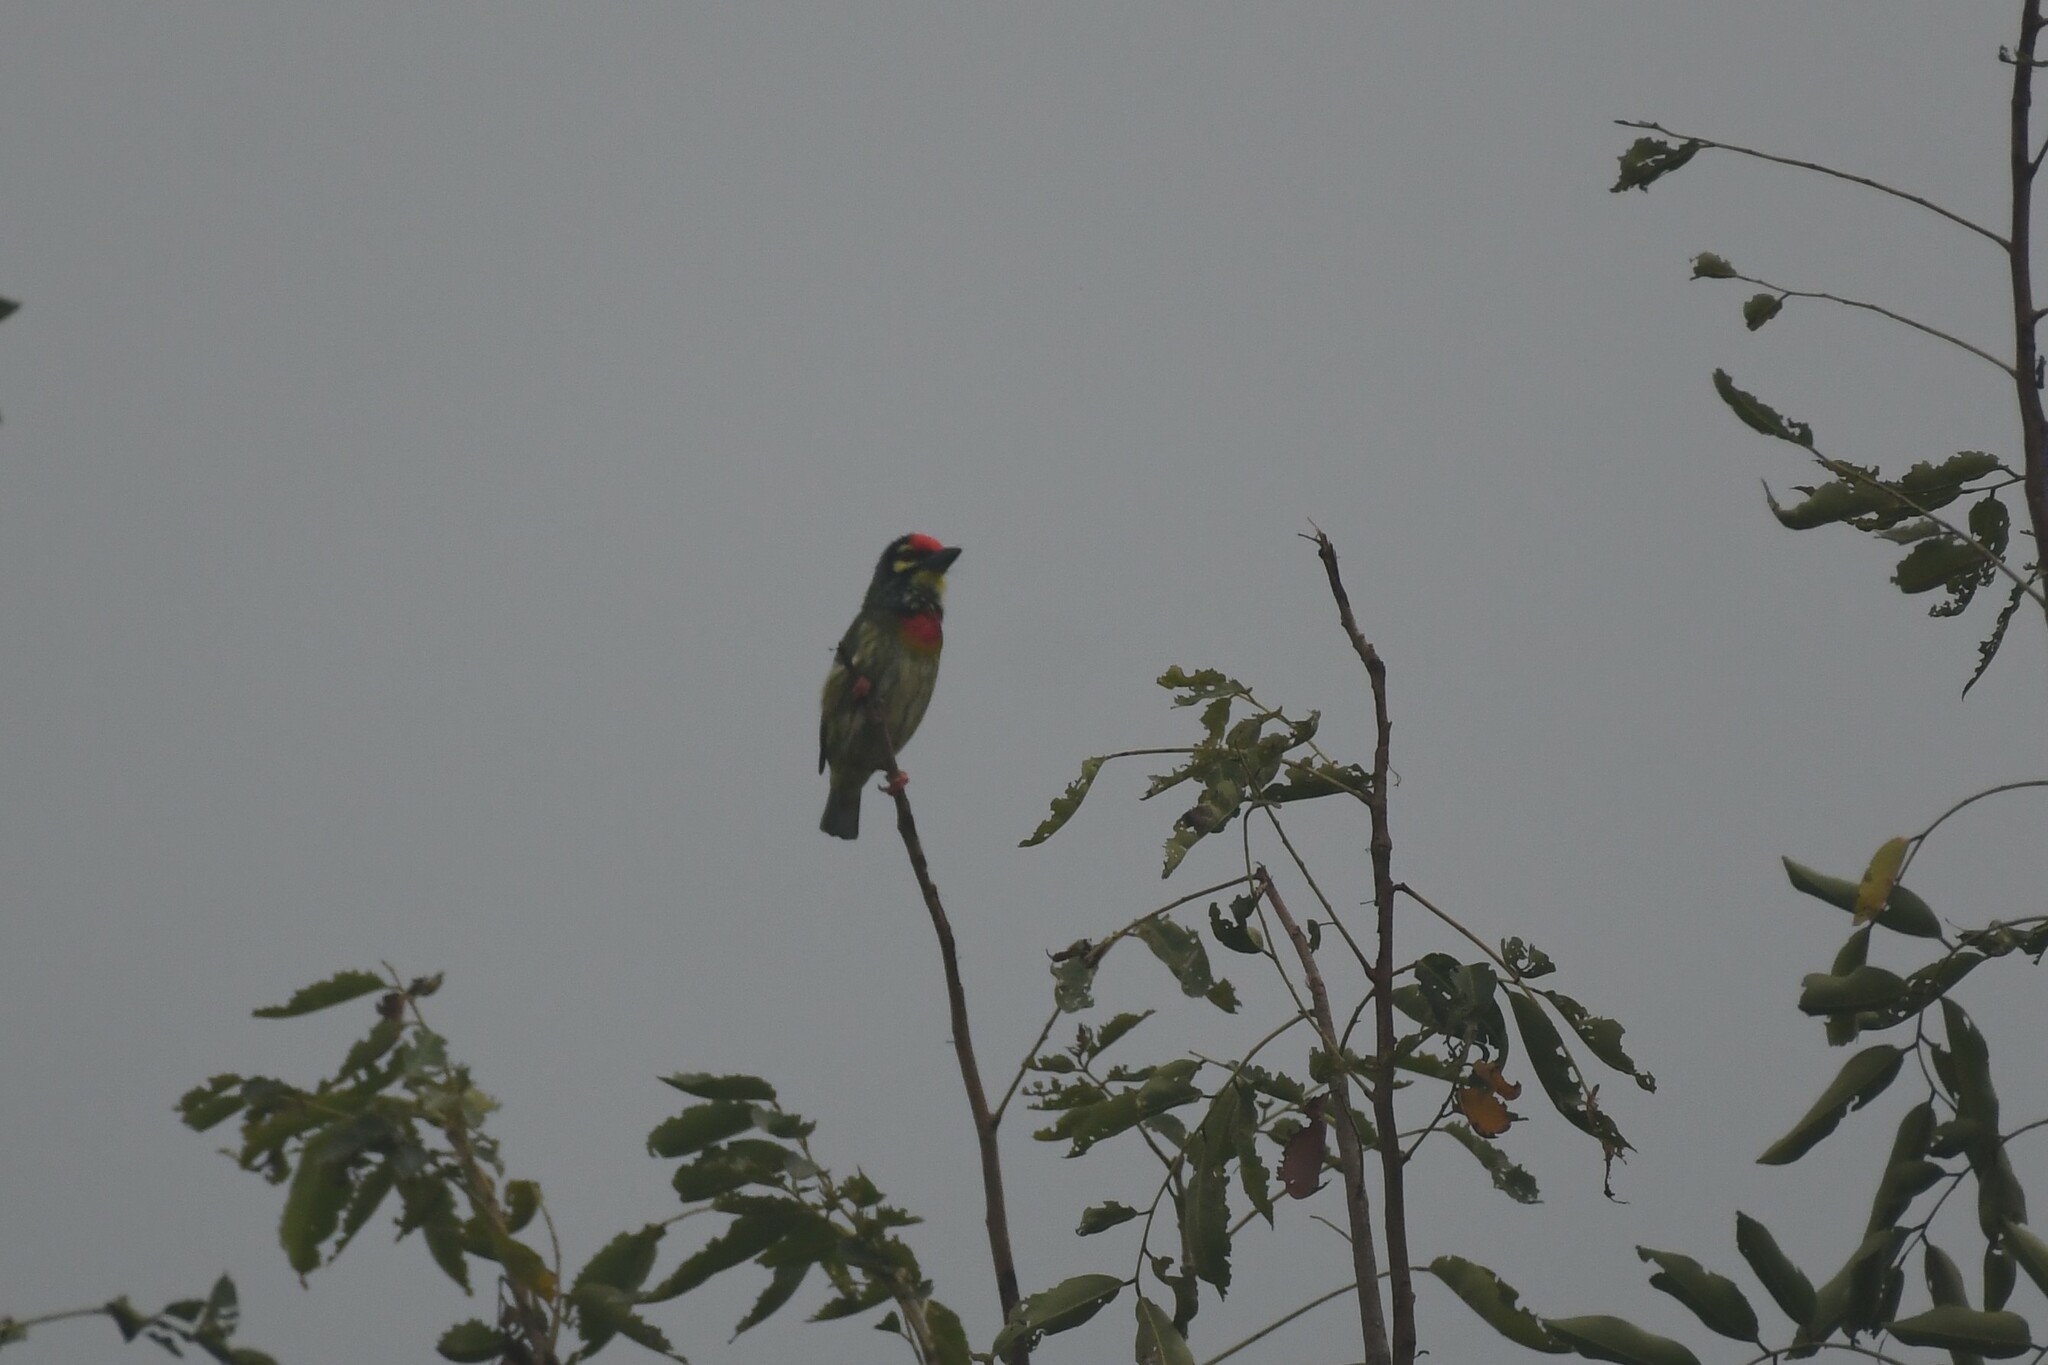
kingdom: Animalia
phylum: Chordata
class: Aves
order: Piciformes
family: Megalaimidae
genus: Psilopogon
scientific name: Psilopogon haemacephalus
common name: Coppersmith barbet
